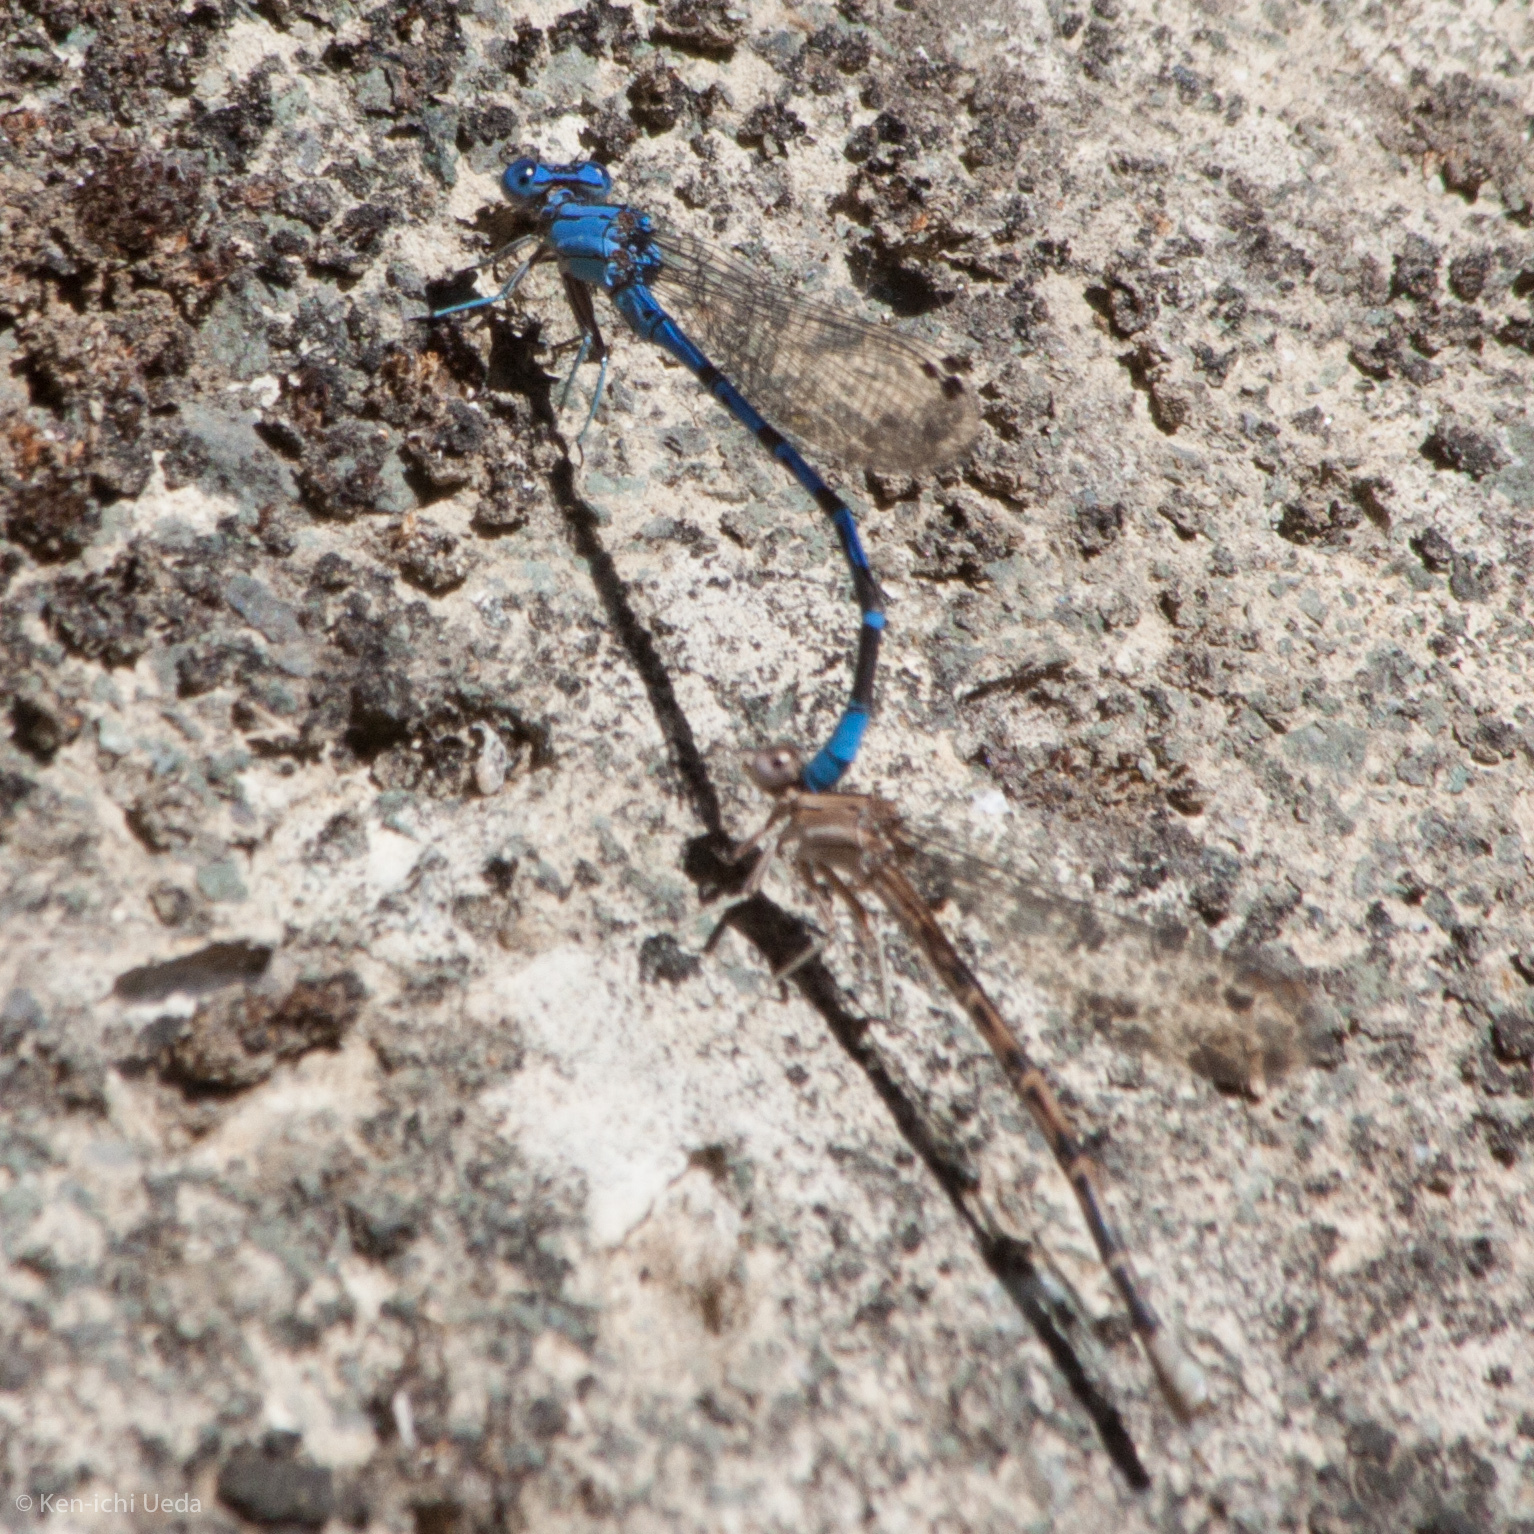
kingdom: Animalia
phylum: Arthropoda
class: Insecta
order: Odonata
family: Coenagrionidae
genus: Argia
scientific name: Argia vivida
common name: Vivid dancer
